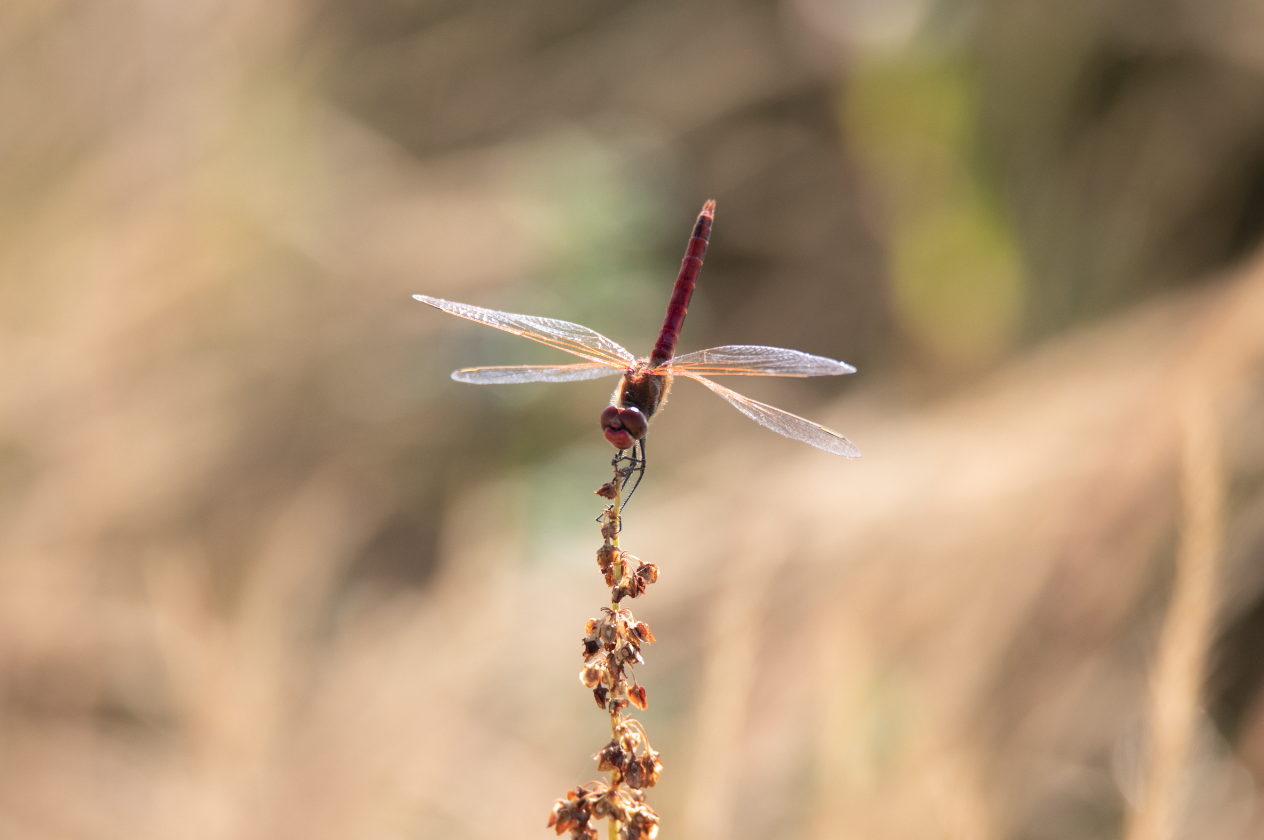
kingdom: Animalia
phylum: Arthropoda
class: Insecta
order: Odonata
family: Libellulidae
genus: Sympetrum
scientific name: Sympetrum fonscolombii
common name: Red-veined darter
